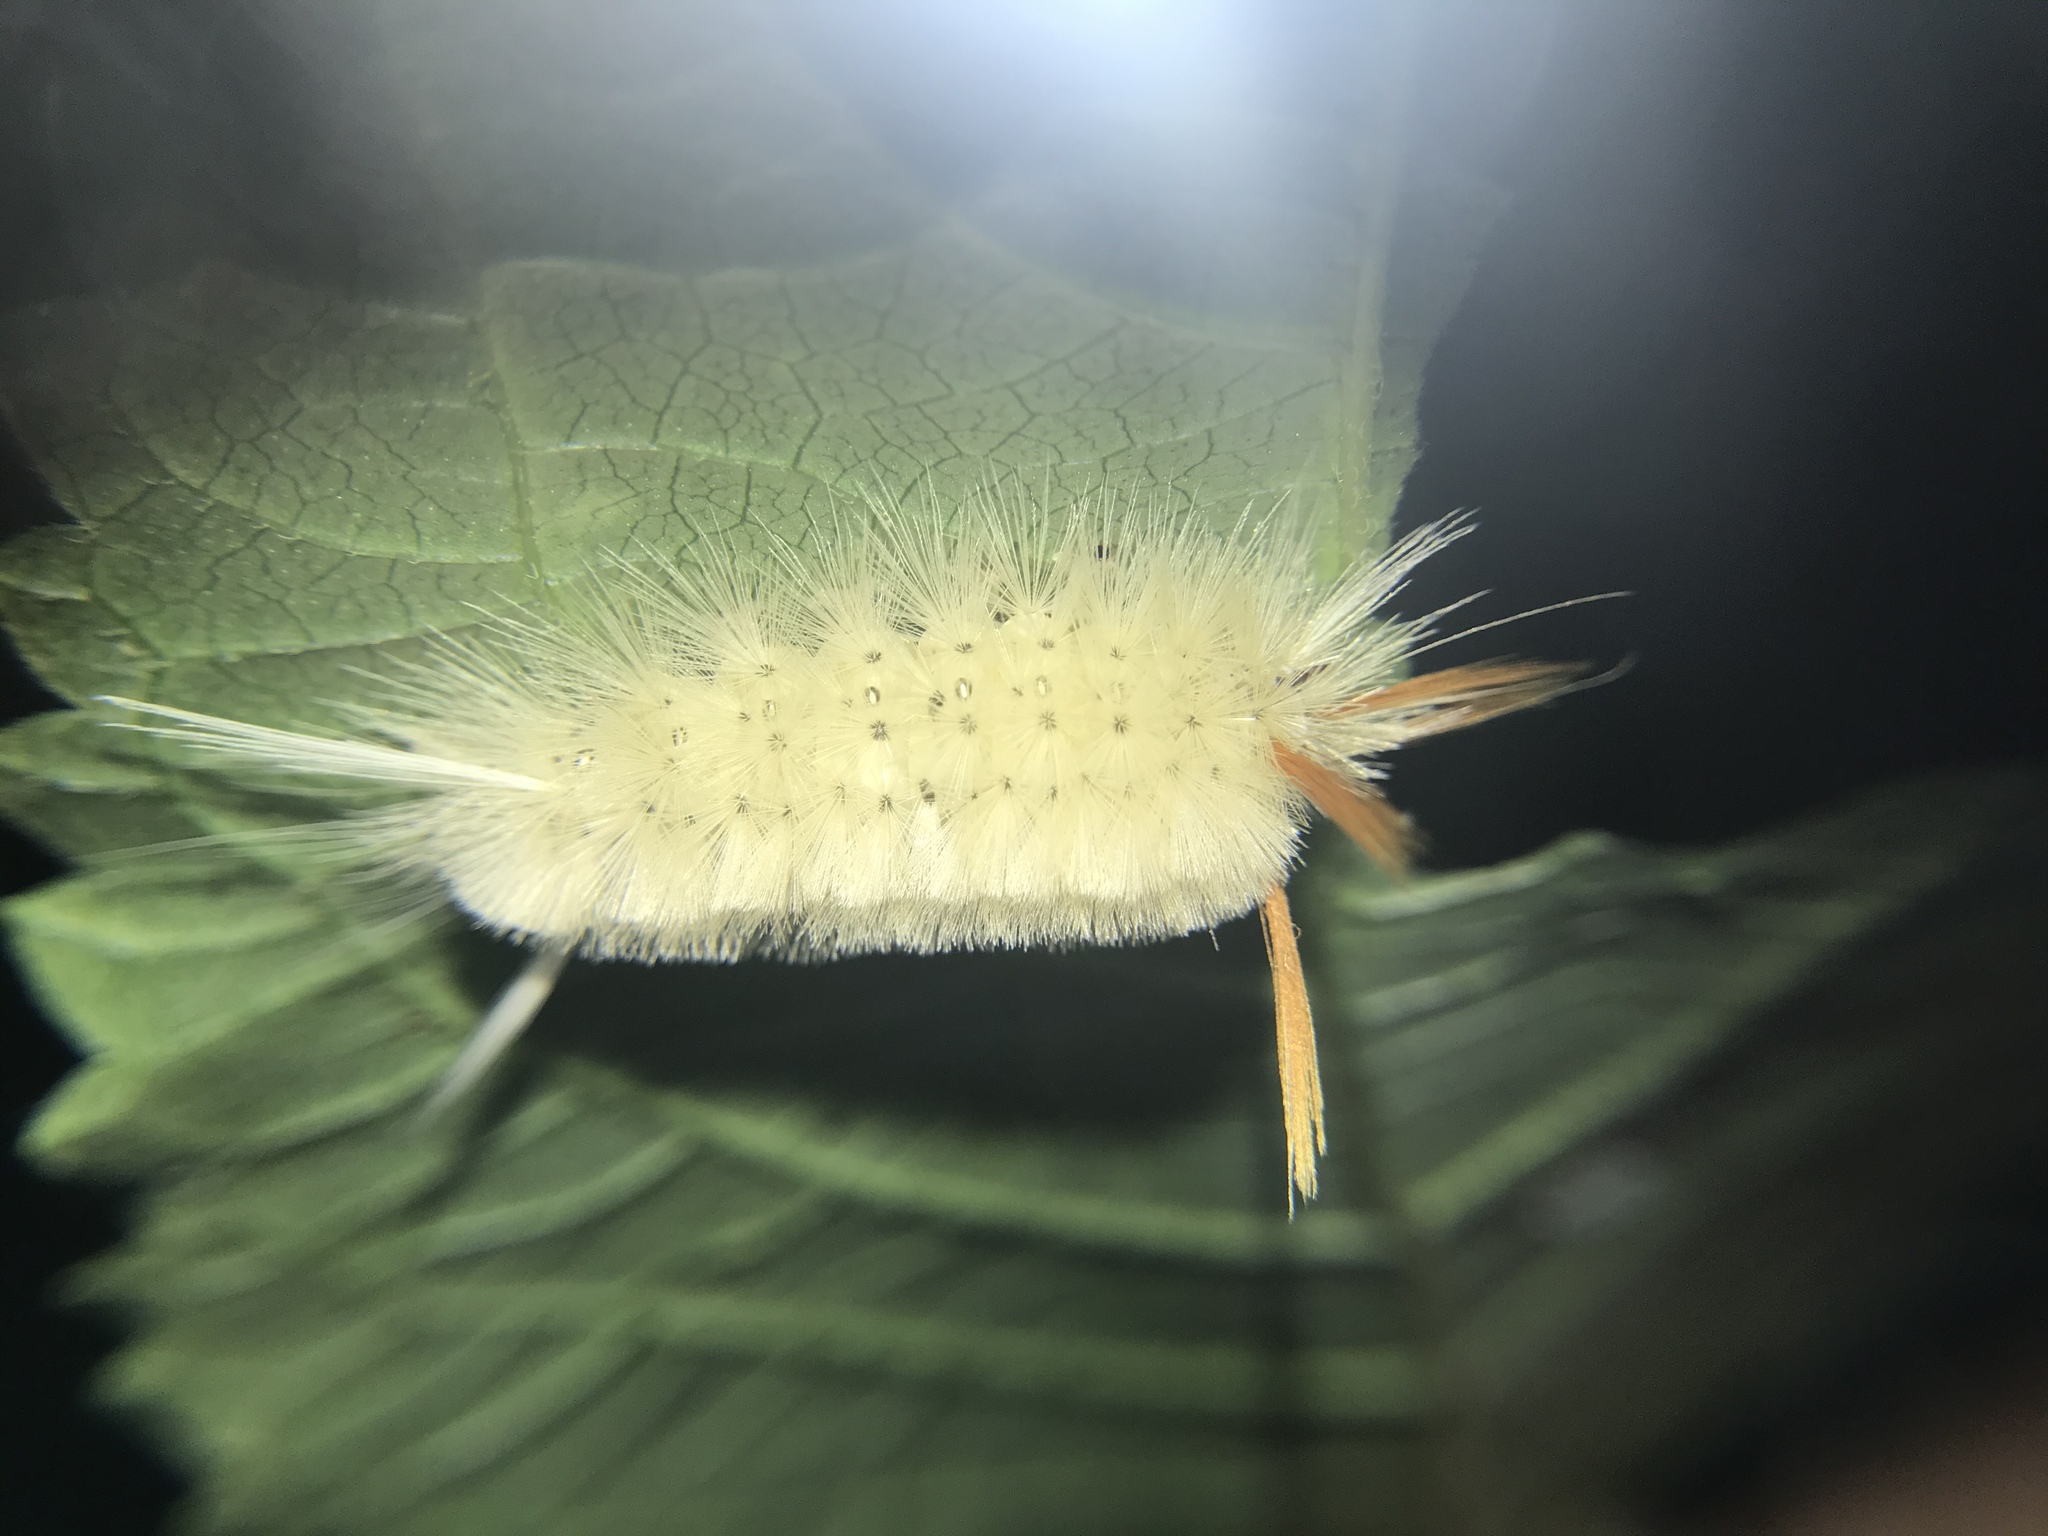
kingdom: Animalia
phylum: Arthropoda
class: Insecta
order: Lepidoptera
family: Erebidae
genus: Halysidota
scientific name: Halysidota harrisii
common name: Sycamore tussock moth
